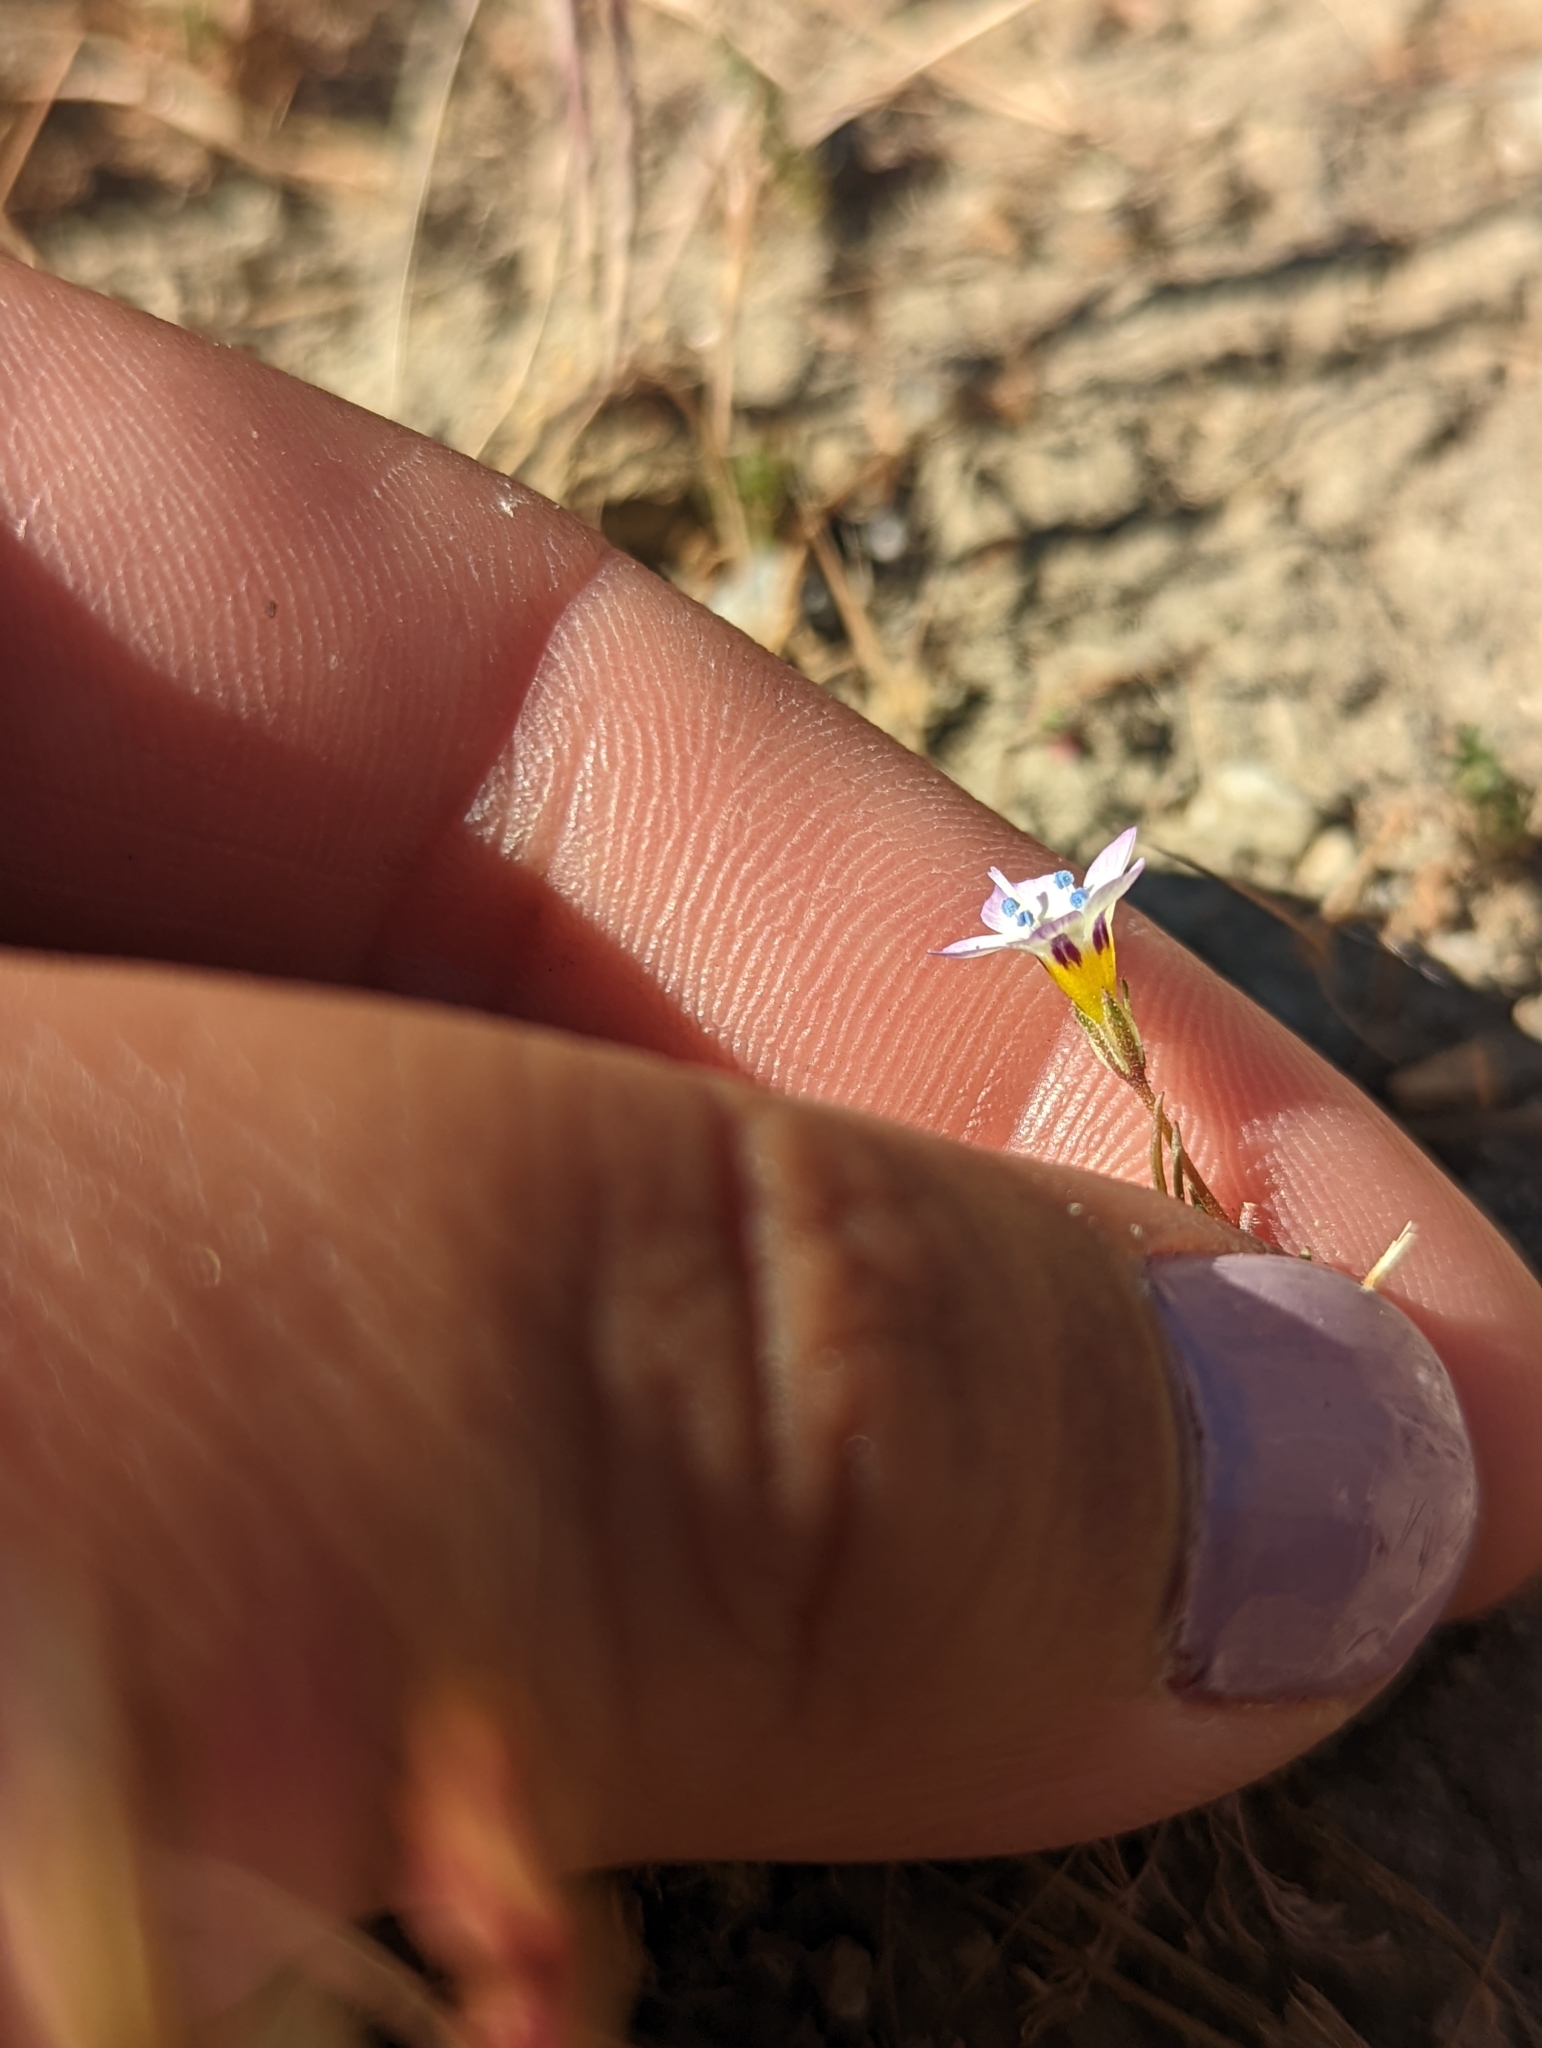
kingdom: Plantae
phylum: Tracheophyta
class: Magnoliopsida
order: Ericales
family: Polemoniaceae
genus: Gilia
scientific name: Gilia tricolor
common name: Bird's-eyes
